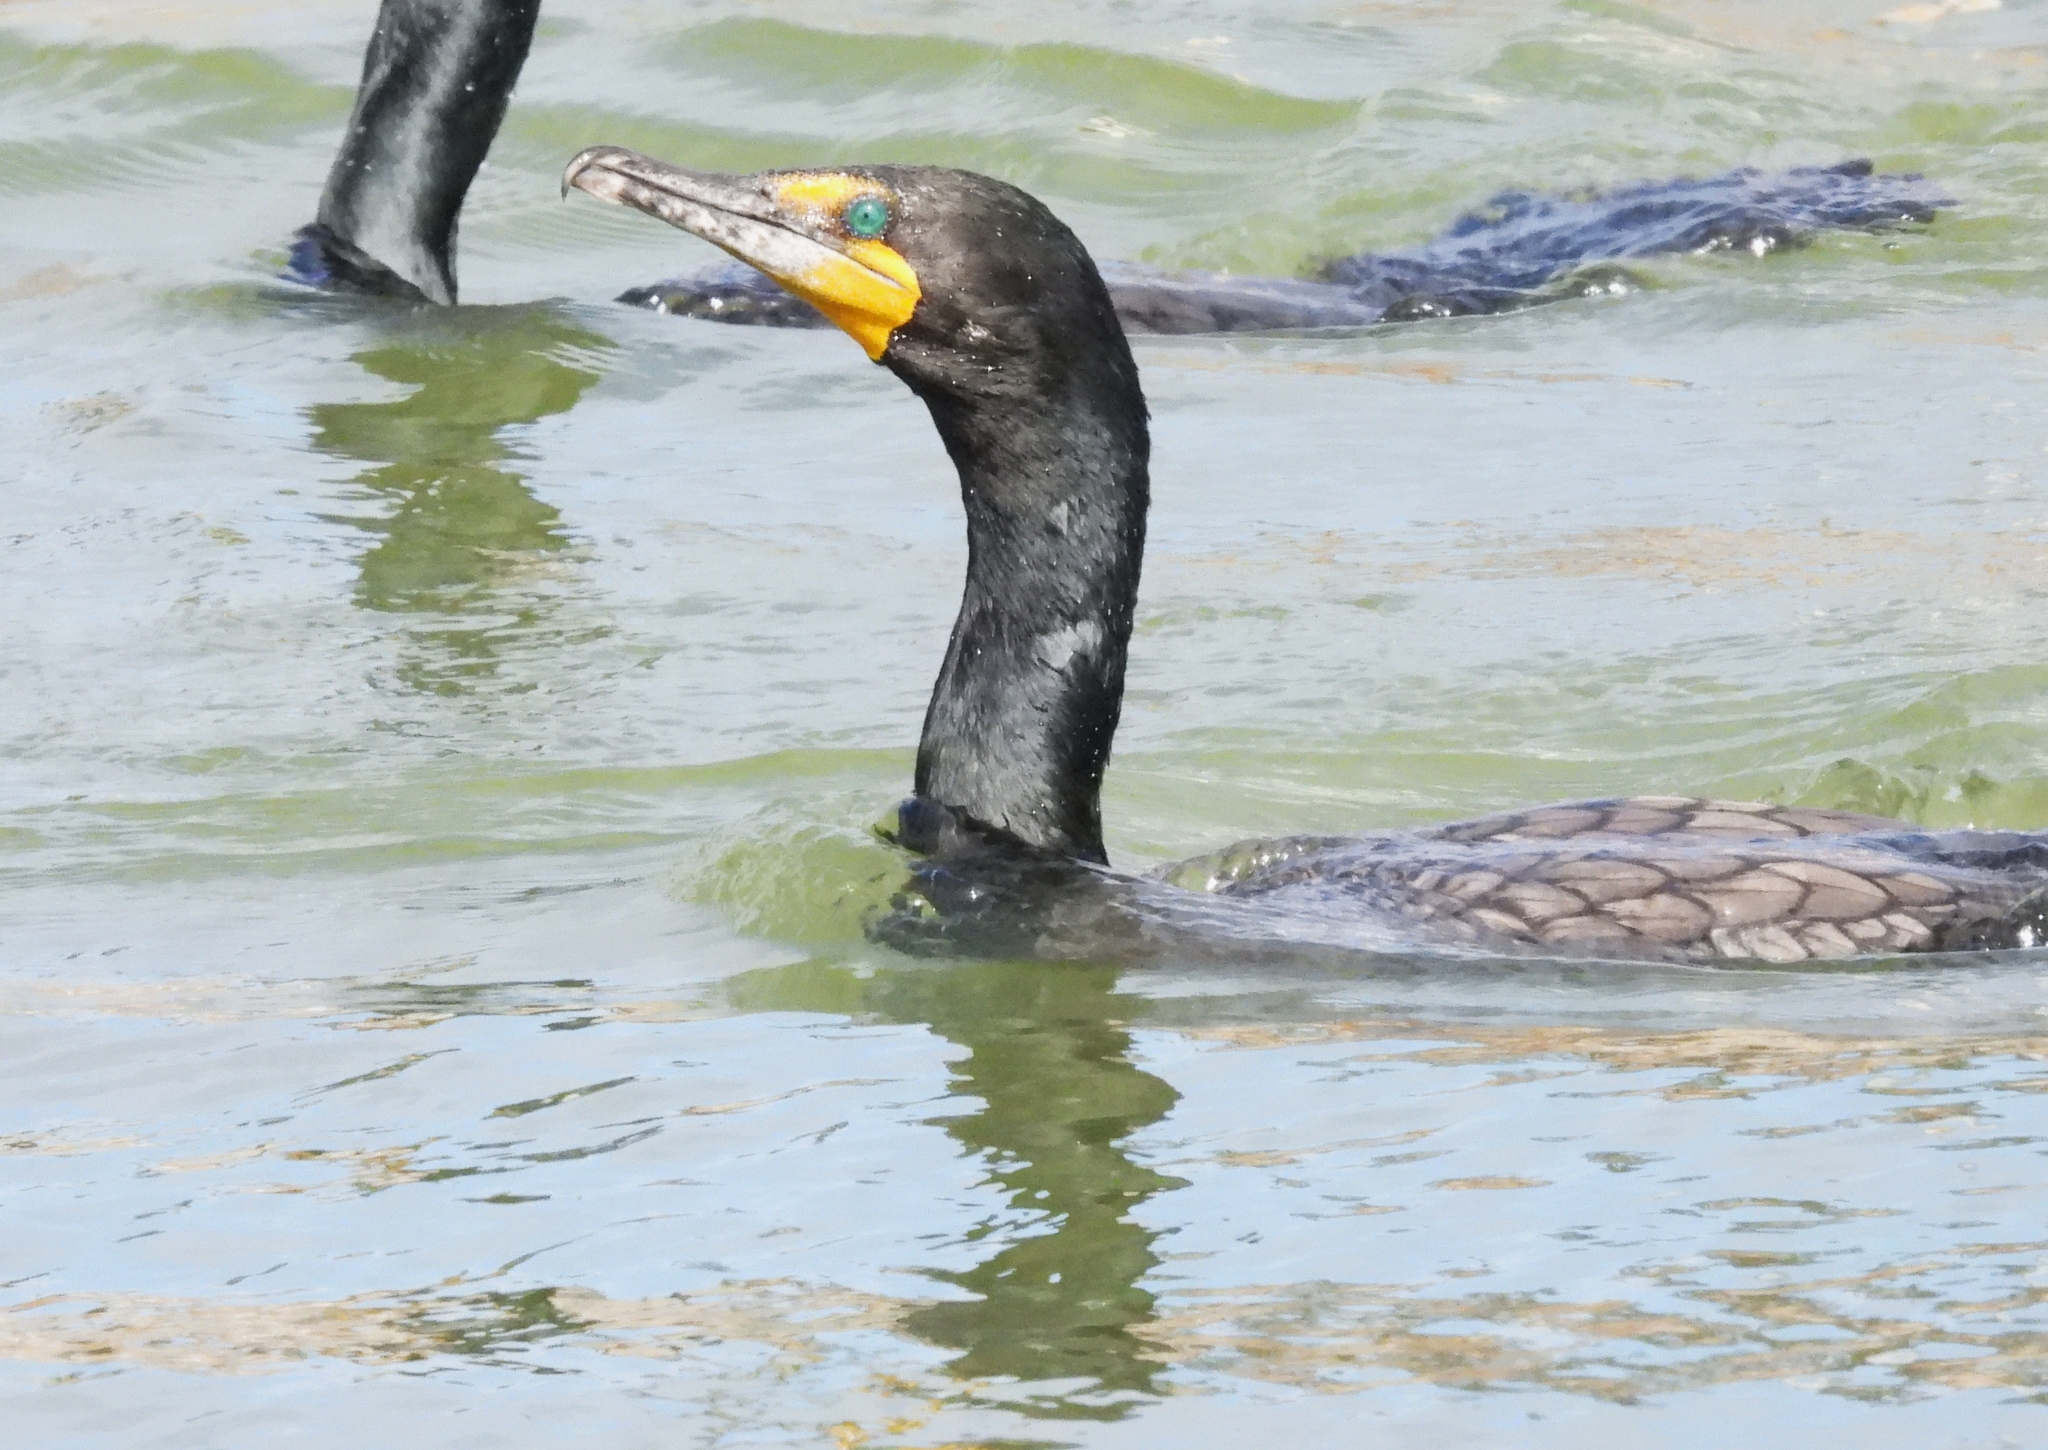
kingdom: Animalia
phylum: Chordata
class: Aves
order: Suliformes
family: Phalacrocoracidae
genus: Phalacrocorax
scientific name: Phalacrocorax auritus
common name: Double-crested cormorant
